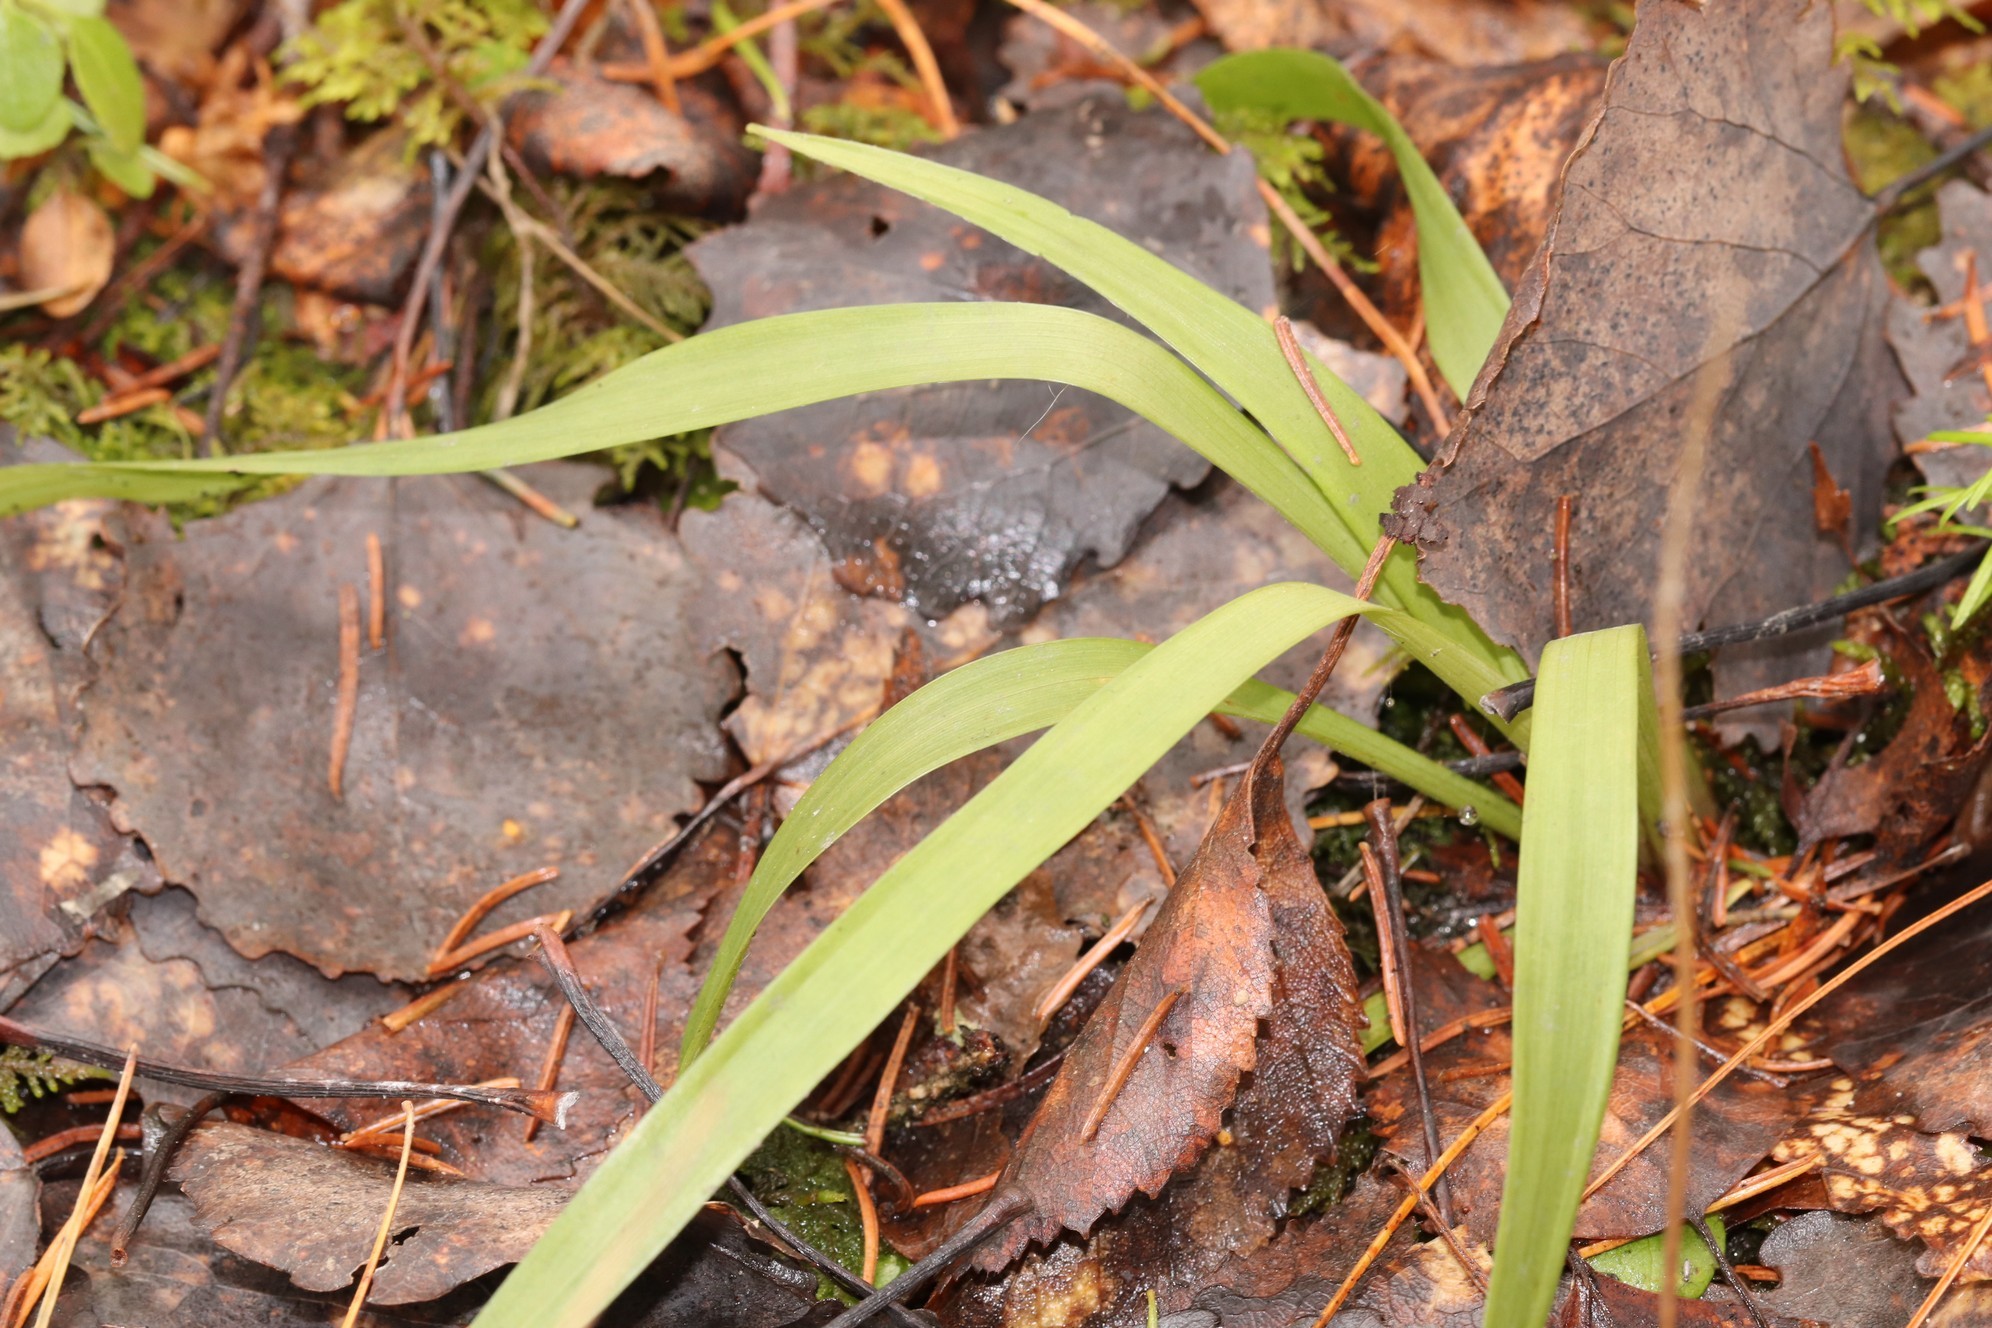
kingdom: Plantae
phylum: Tracheophyta
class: Liliopsida
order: Poales
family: Juncaceae
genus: Luzula
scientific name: Luzula pilosa
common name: Hairy wood-rush
